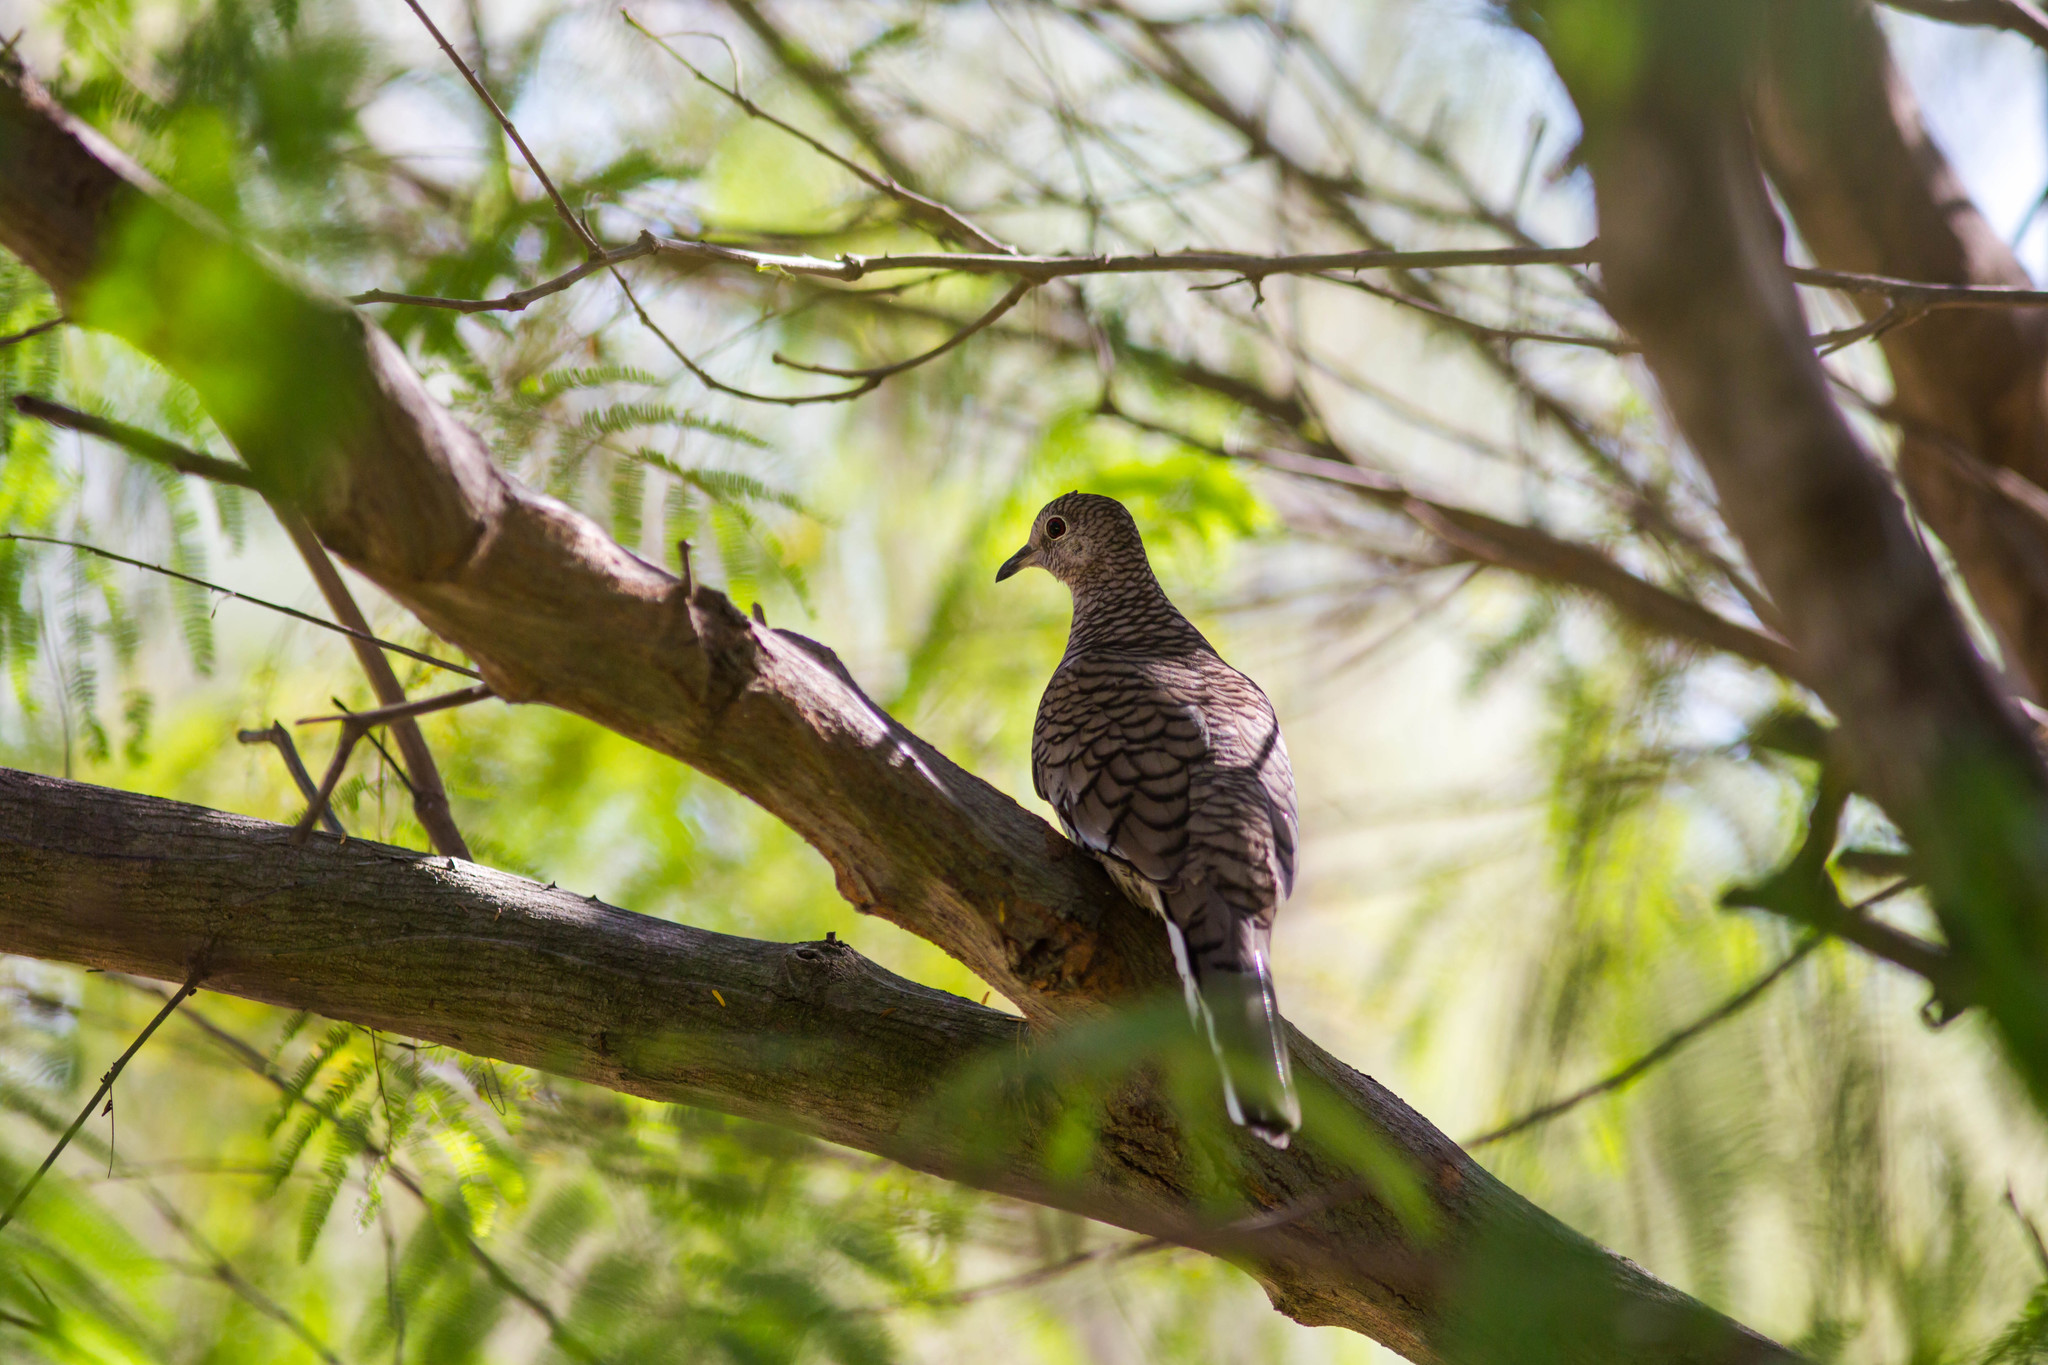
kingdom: Animalia
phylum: Chordata
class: Aves
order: Columbiformes
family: Columbidae
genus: Columbina
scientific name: Columbina inca
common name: Inca dove
